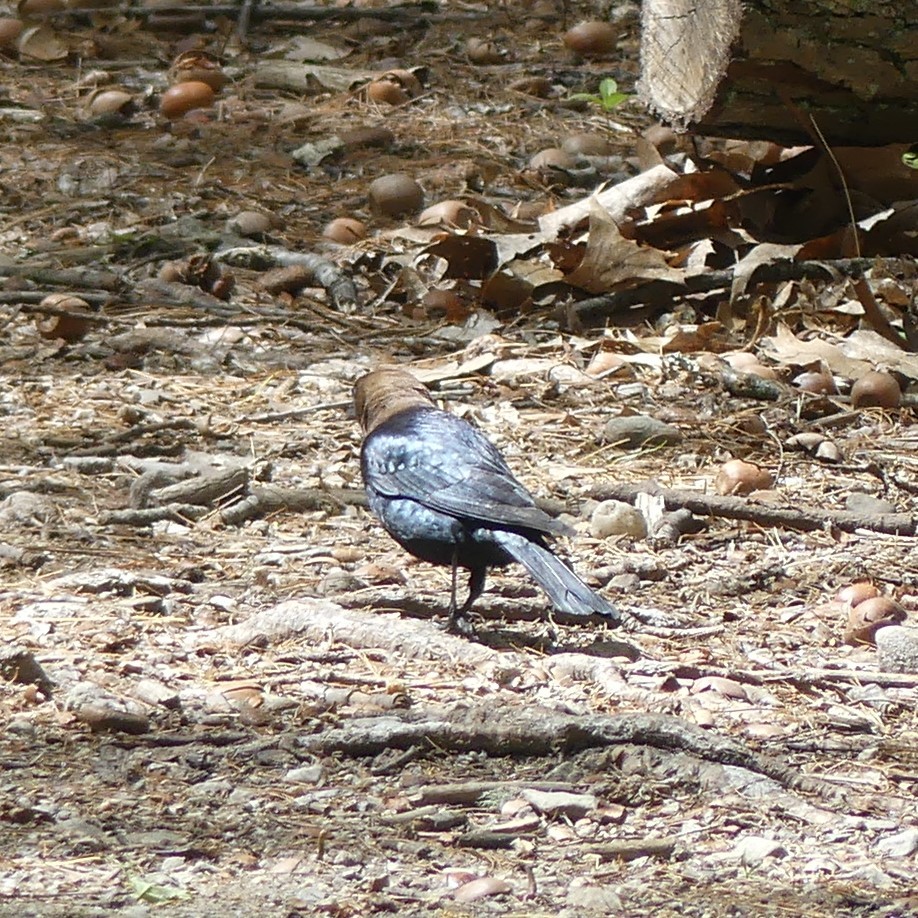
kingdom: Animalia
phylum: Chordata
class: Aves
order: Passeriformes
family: Icteridae
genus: Molothrus
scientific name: Molothrus ater
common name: Brown-headed cowbird
